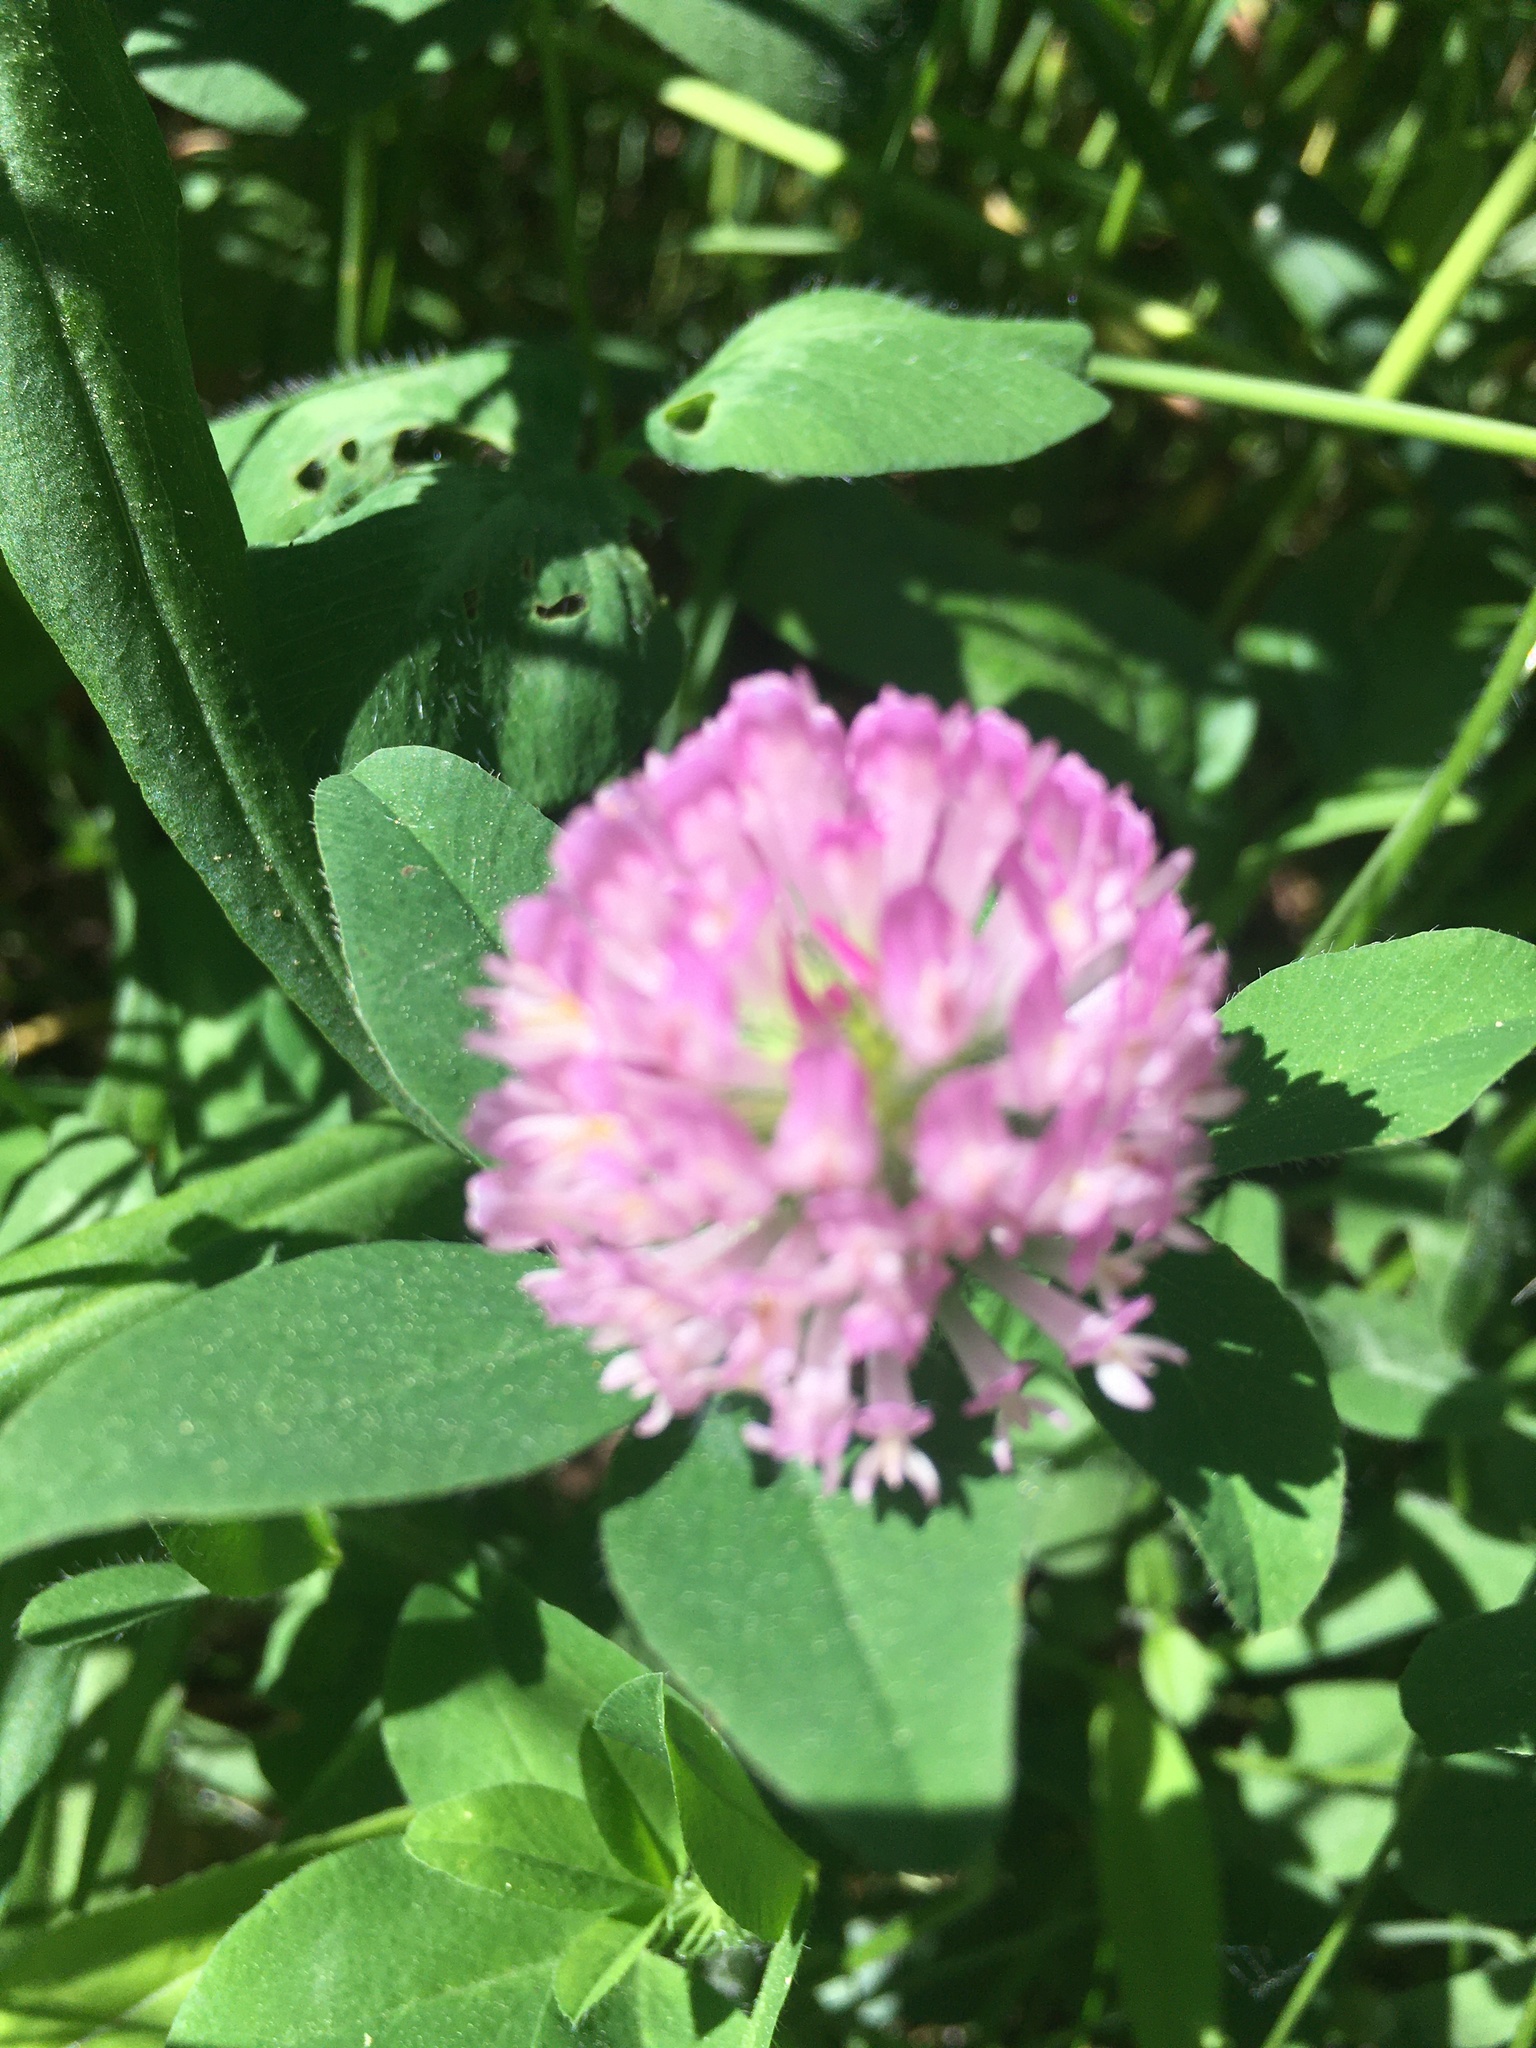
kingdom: Plantae
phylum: Tracheophyta
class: Magnoliopsida
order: Fabales
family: Fabaceae
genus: Trifolium
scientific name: Trifolium pratense
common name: Red clover
